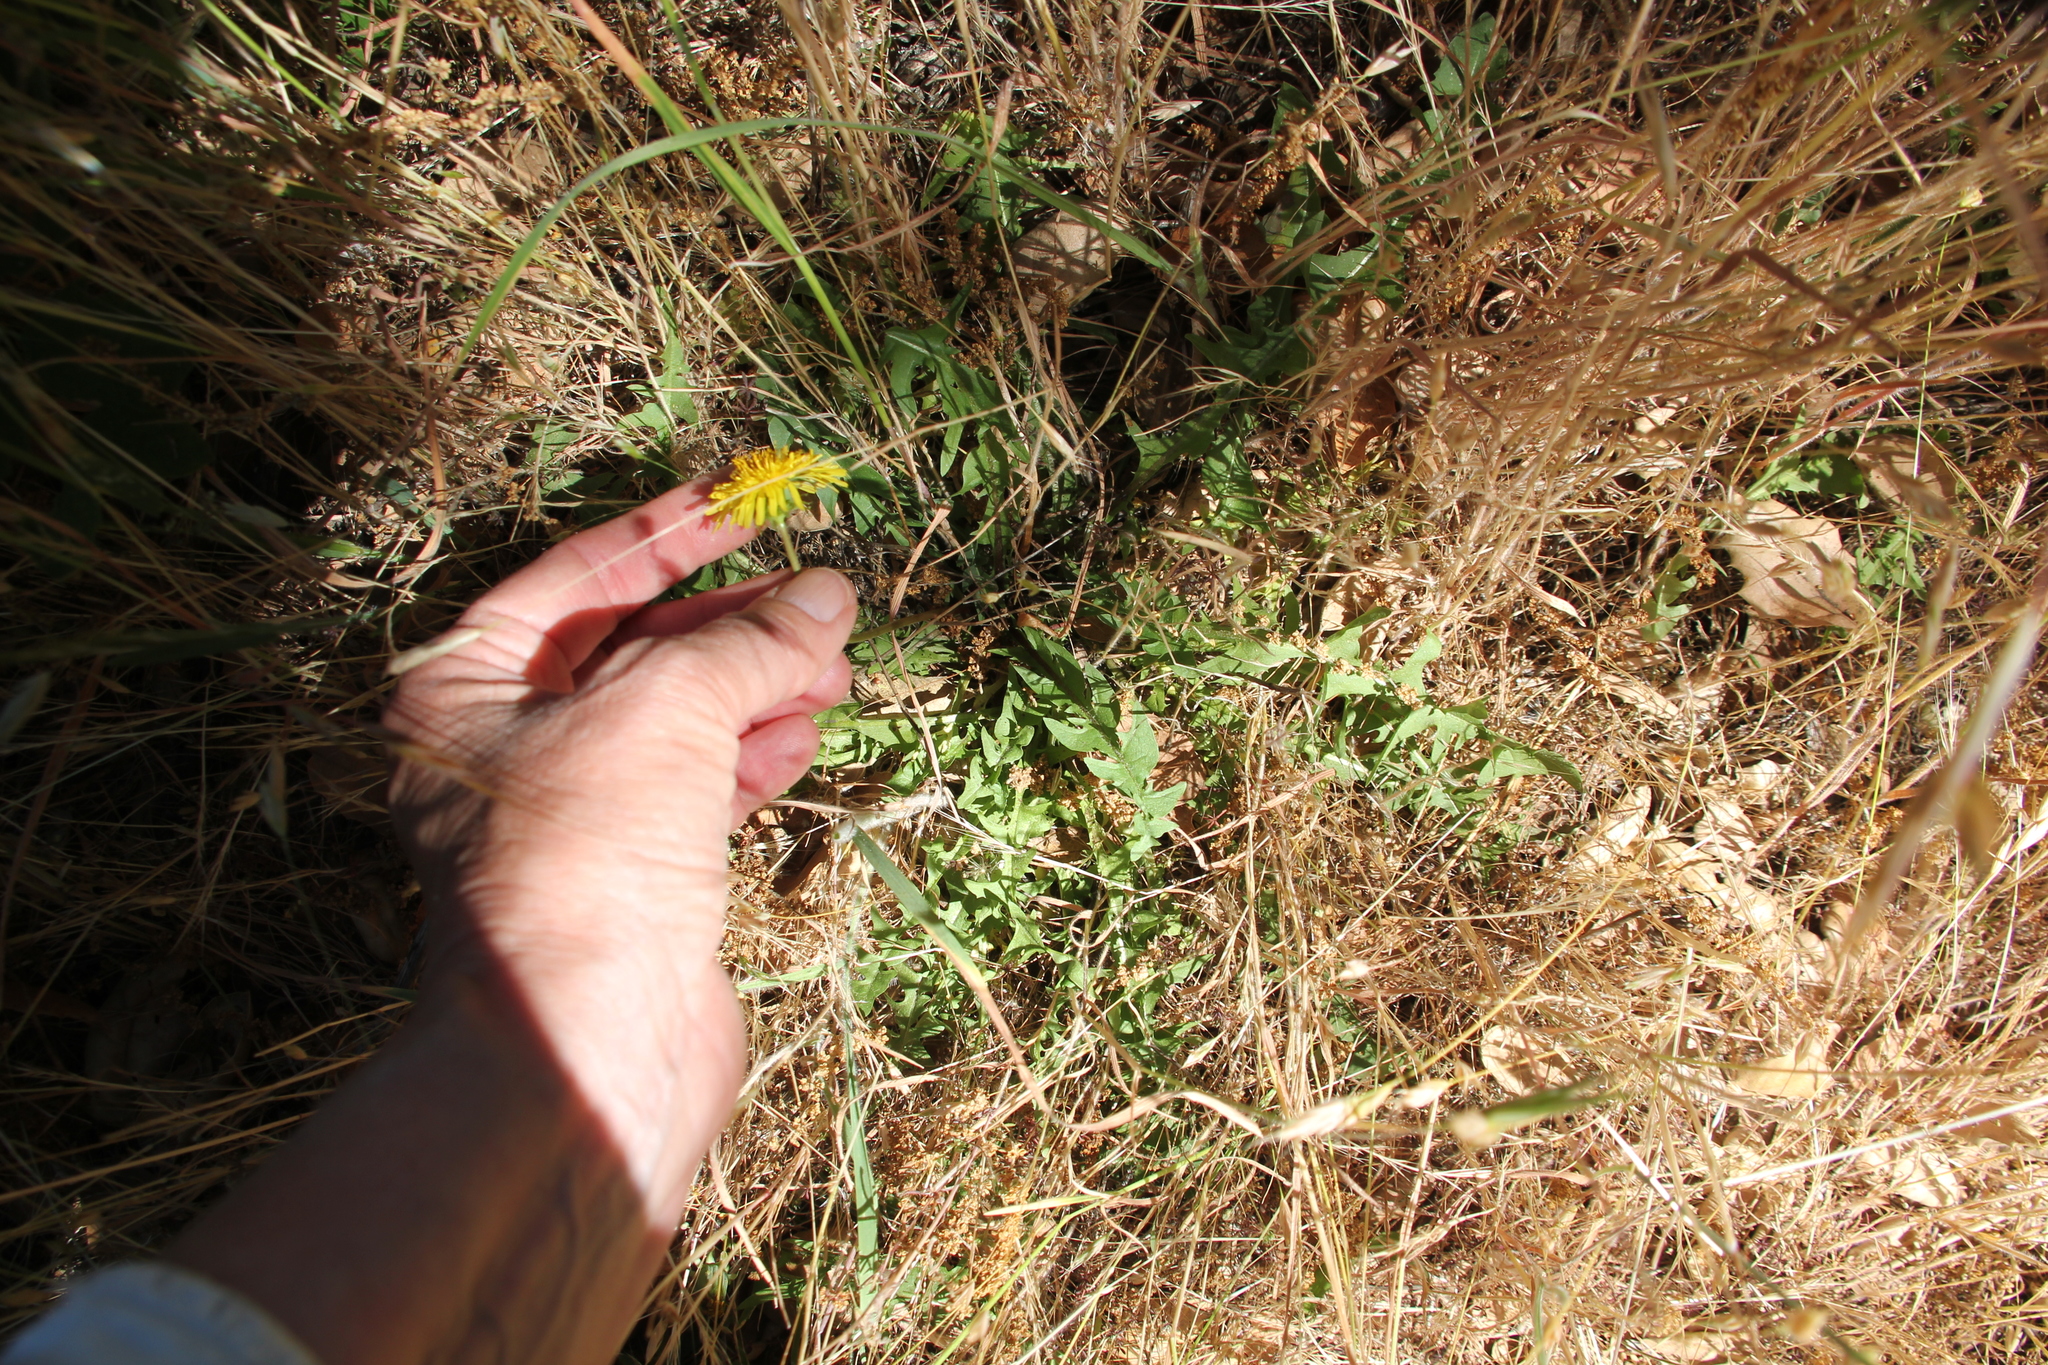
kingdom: Plantae
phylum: Tracheophyta
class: Magnoliopsida
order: Asterales
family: Asteraceae
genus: Taraxacum
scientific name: Taraxacum officinale
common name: Common dandelion
